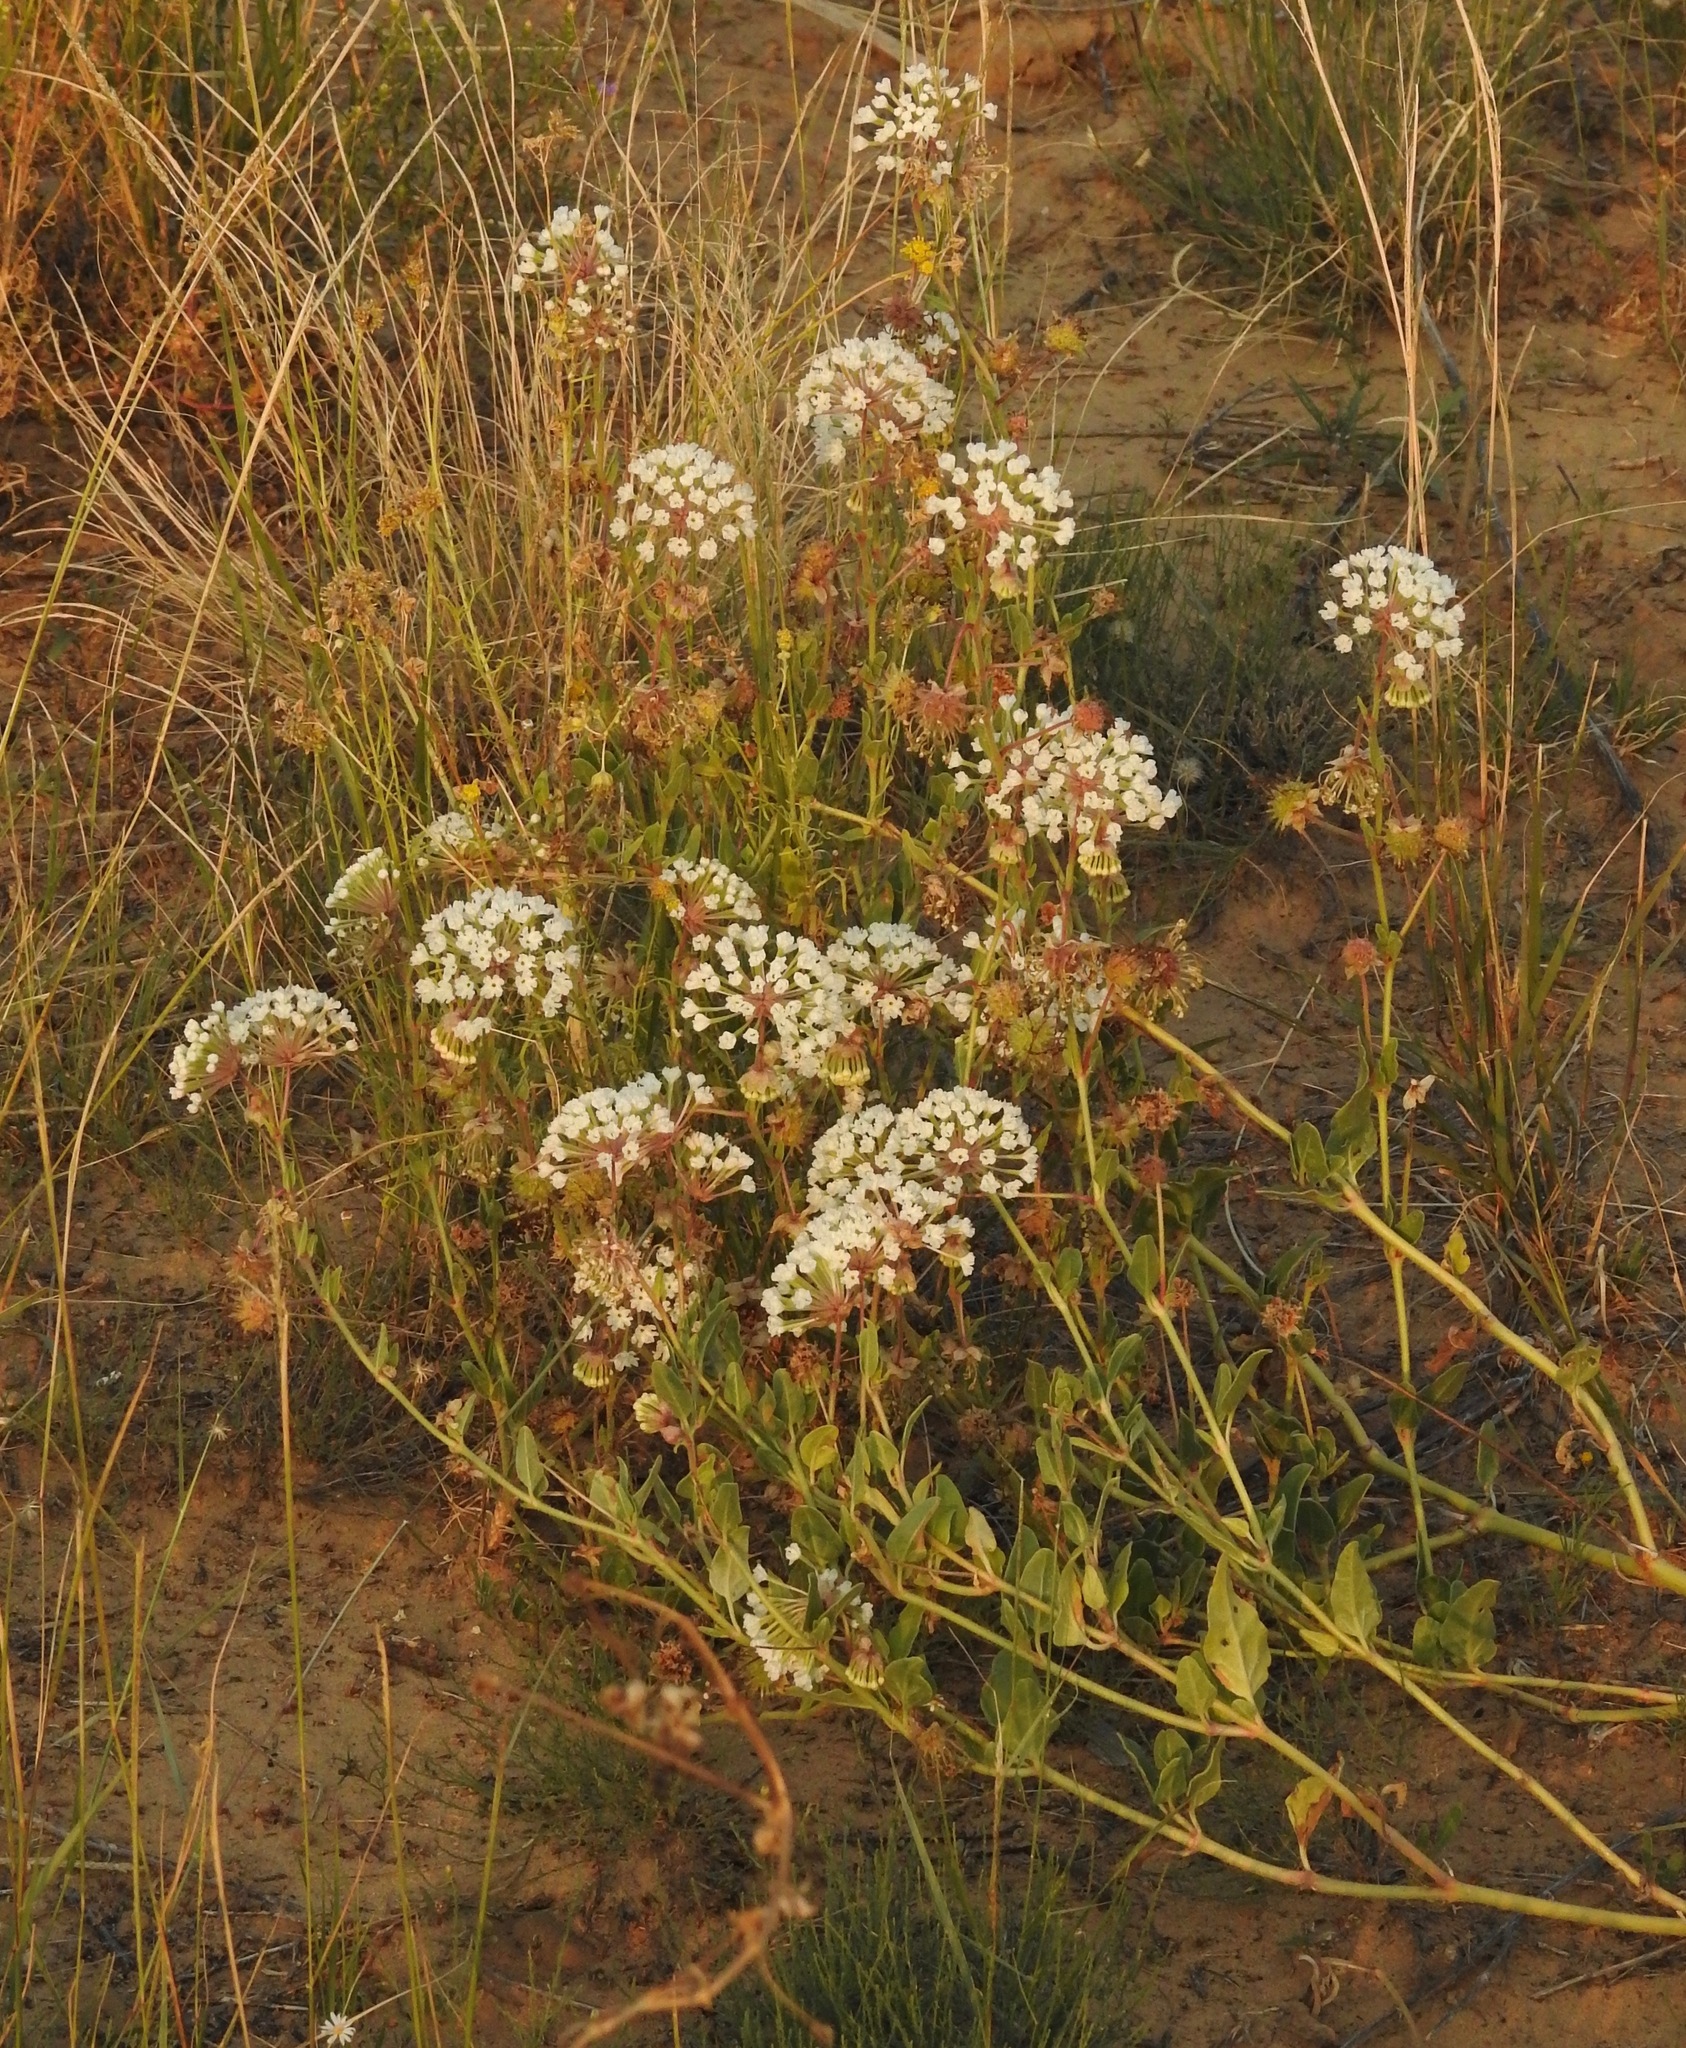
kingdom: Plantae
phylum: Tracheophyta
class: Magnoliopsida
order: Caryophyllales
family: Nyctaginaceae
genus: Abronia
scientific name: Abronia fragrans
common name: Fragrant sand-verbena
